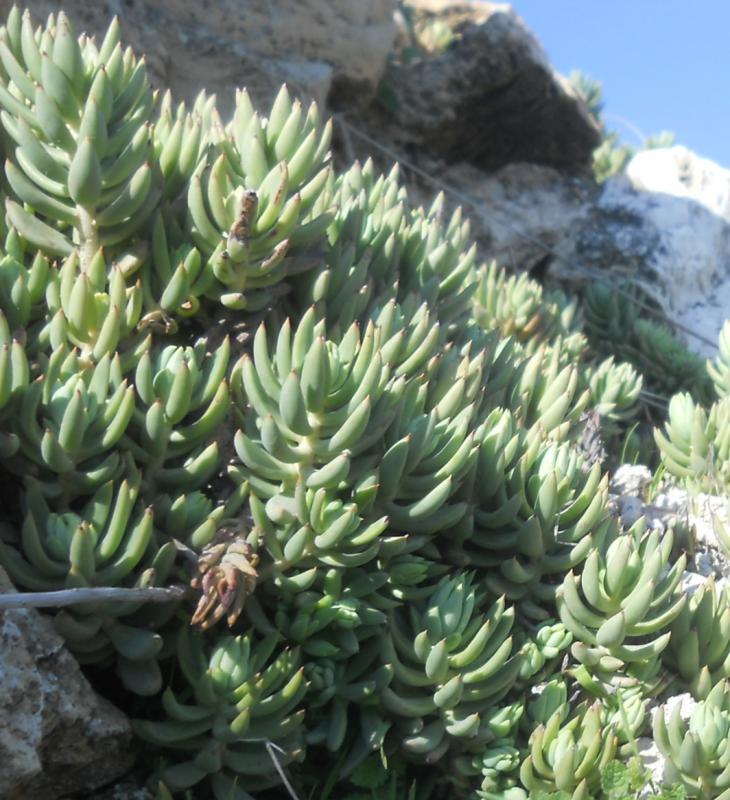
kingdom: Plantae
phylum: Tracheophyta
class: Magnoliopsida
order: Saxifragales
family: Crassulaceae
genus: Petrosedum
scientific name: Petrosedum sediforme
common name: Pale stonecrop
